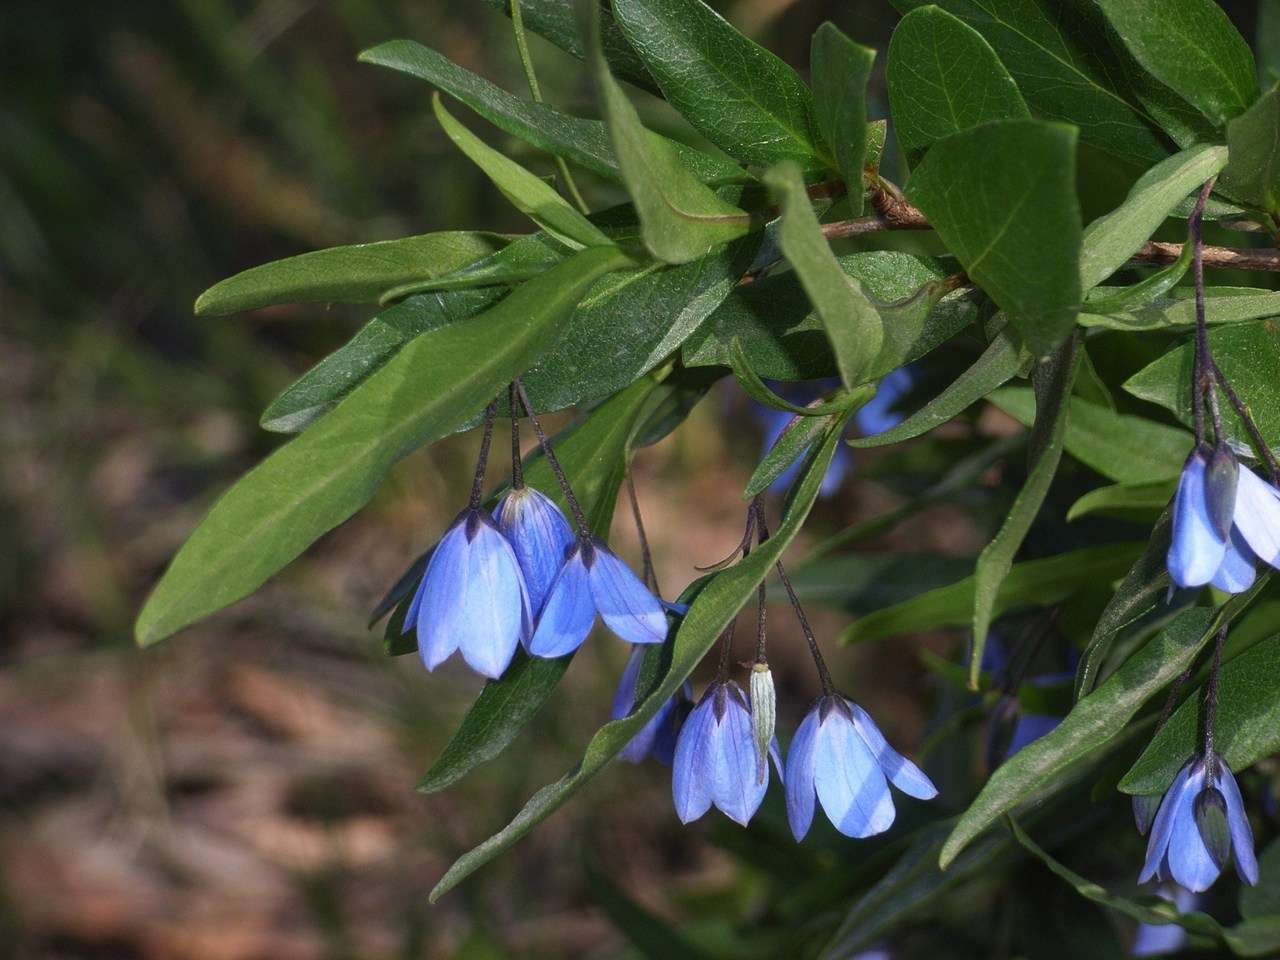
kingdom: Plantae
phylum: Tracheophyta
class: Magnoliopsida
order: Apiales
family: Pittosporaceae
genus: Billardiera
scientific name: Billardiera fusiformis
